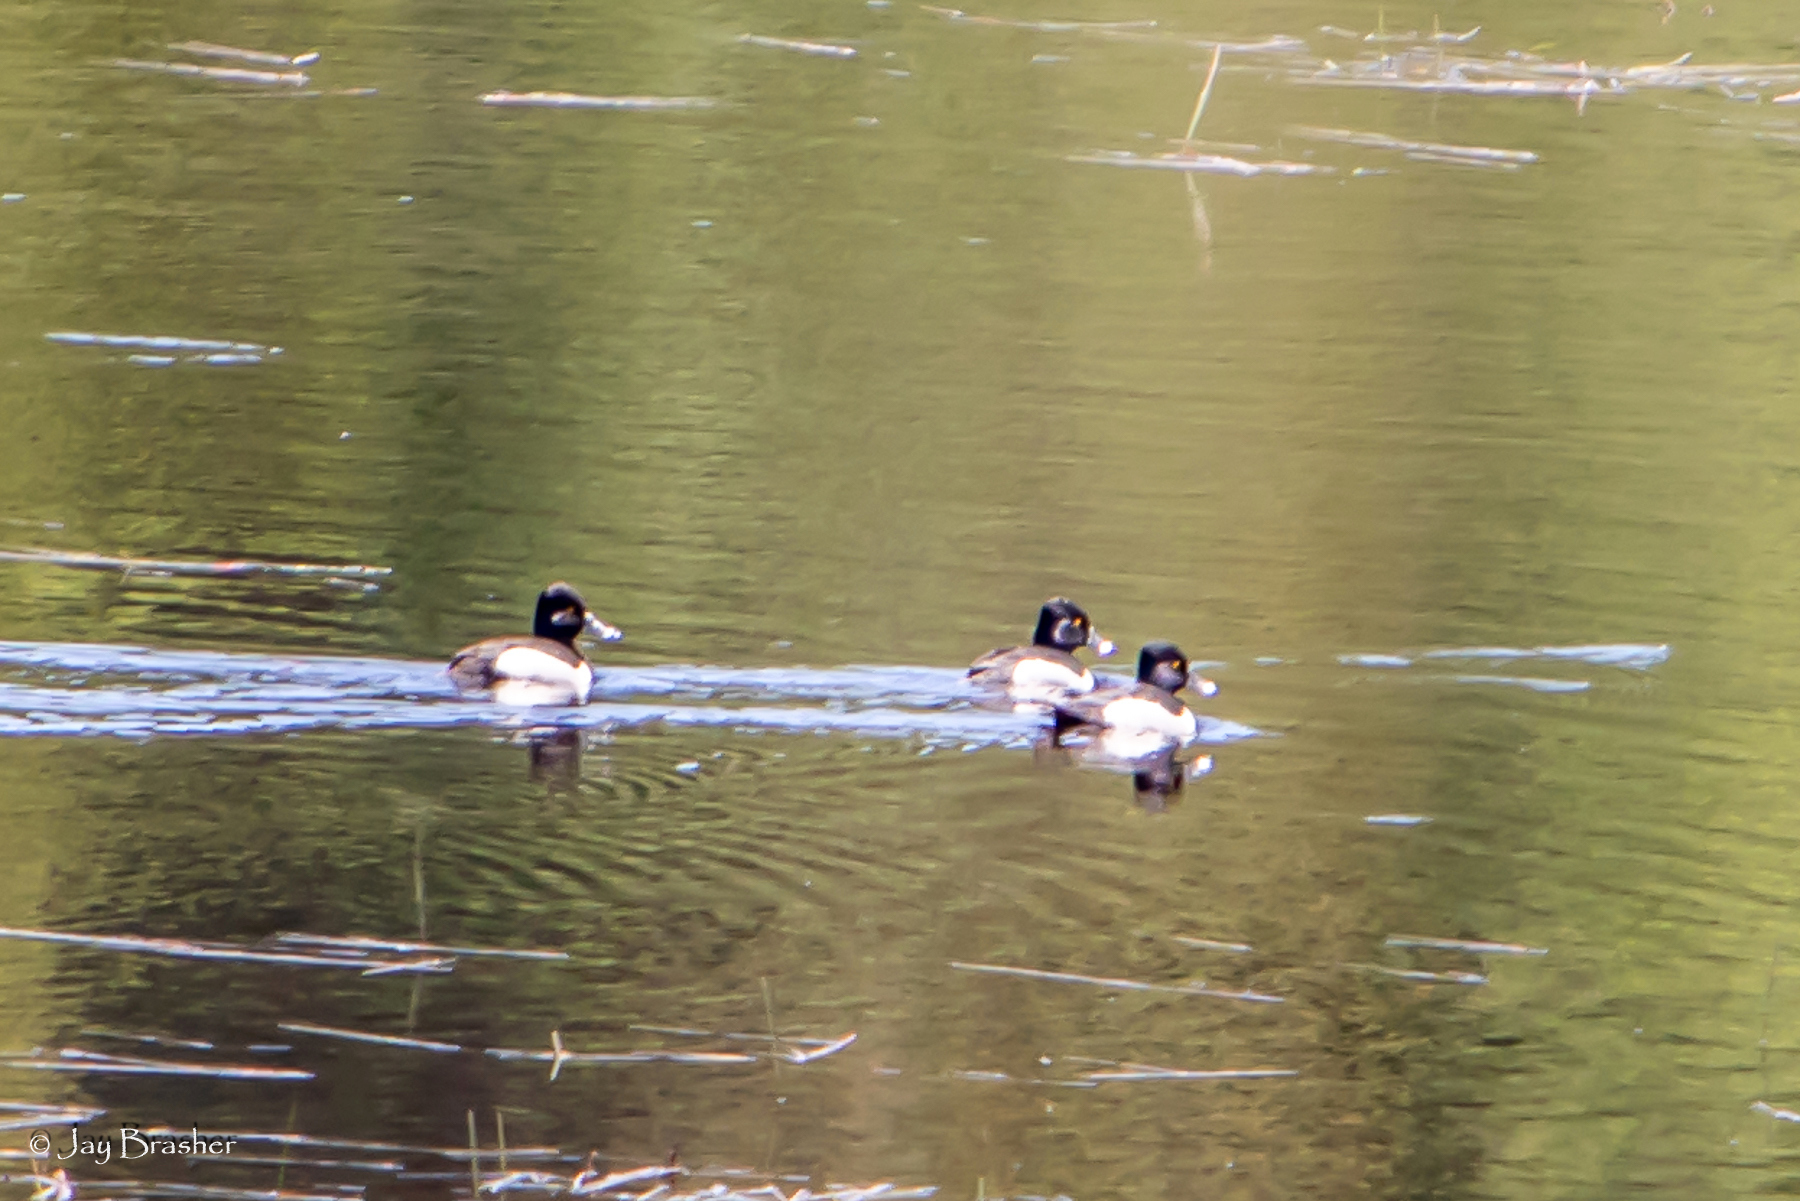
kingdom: Animalia
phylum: Chordata
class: Aves
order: Anseriformes
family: Anatidae
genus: Aythya
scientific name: Aythya collaris
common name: Ring-necked duck
